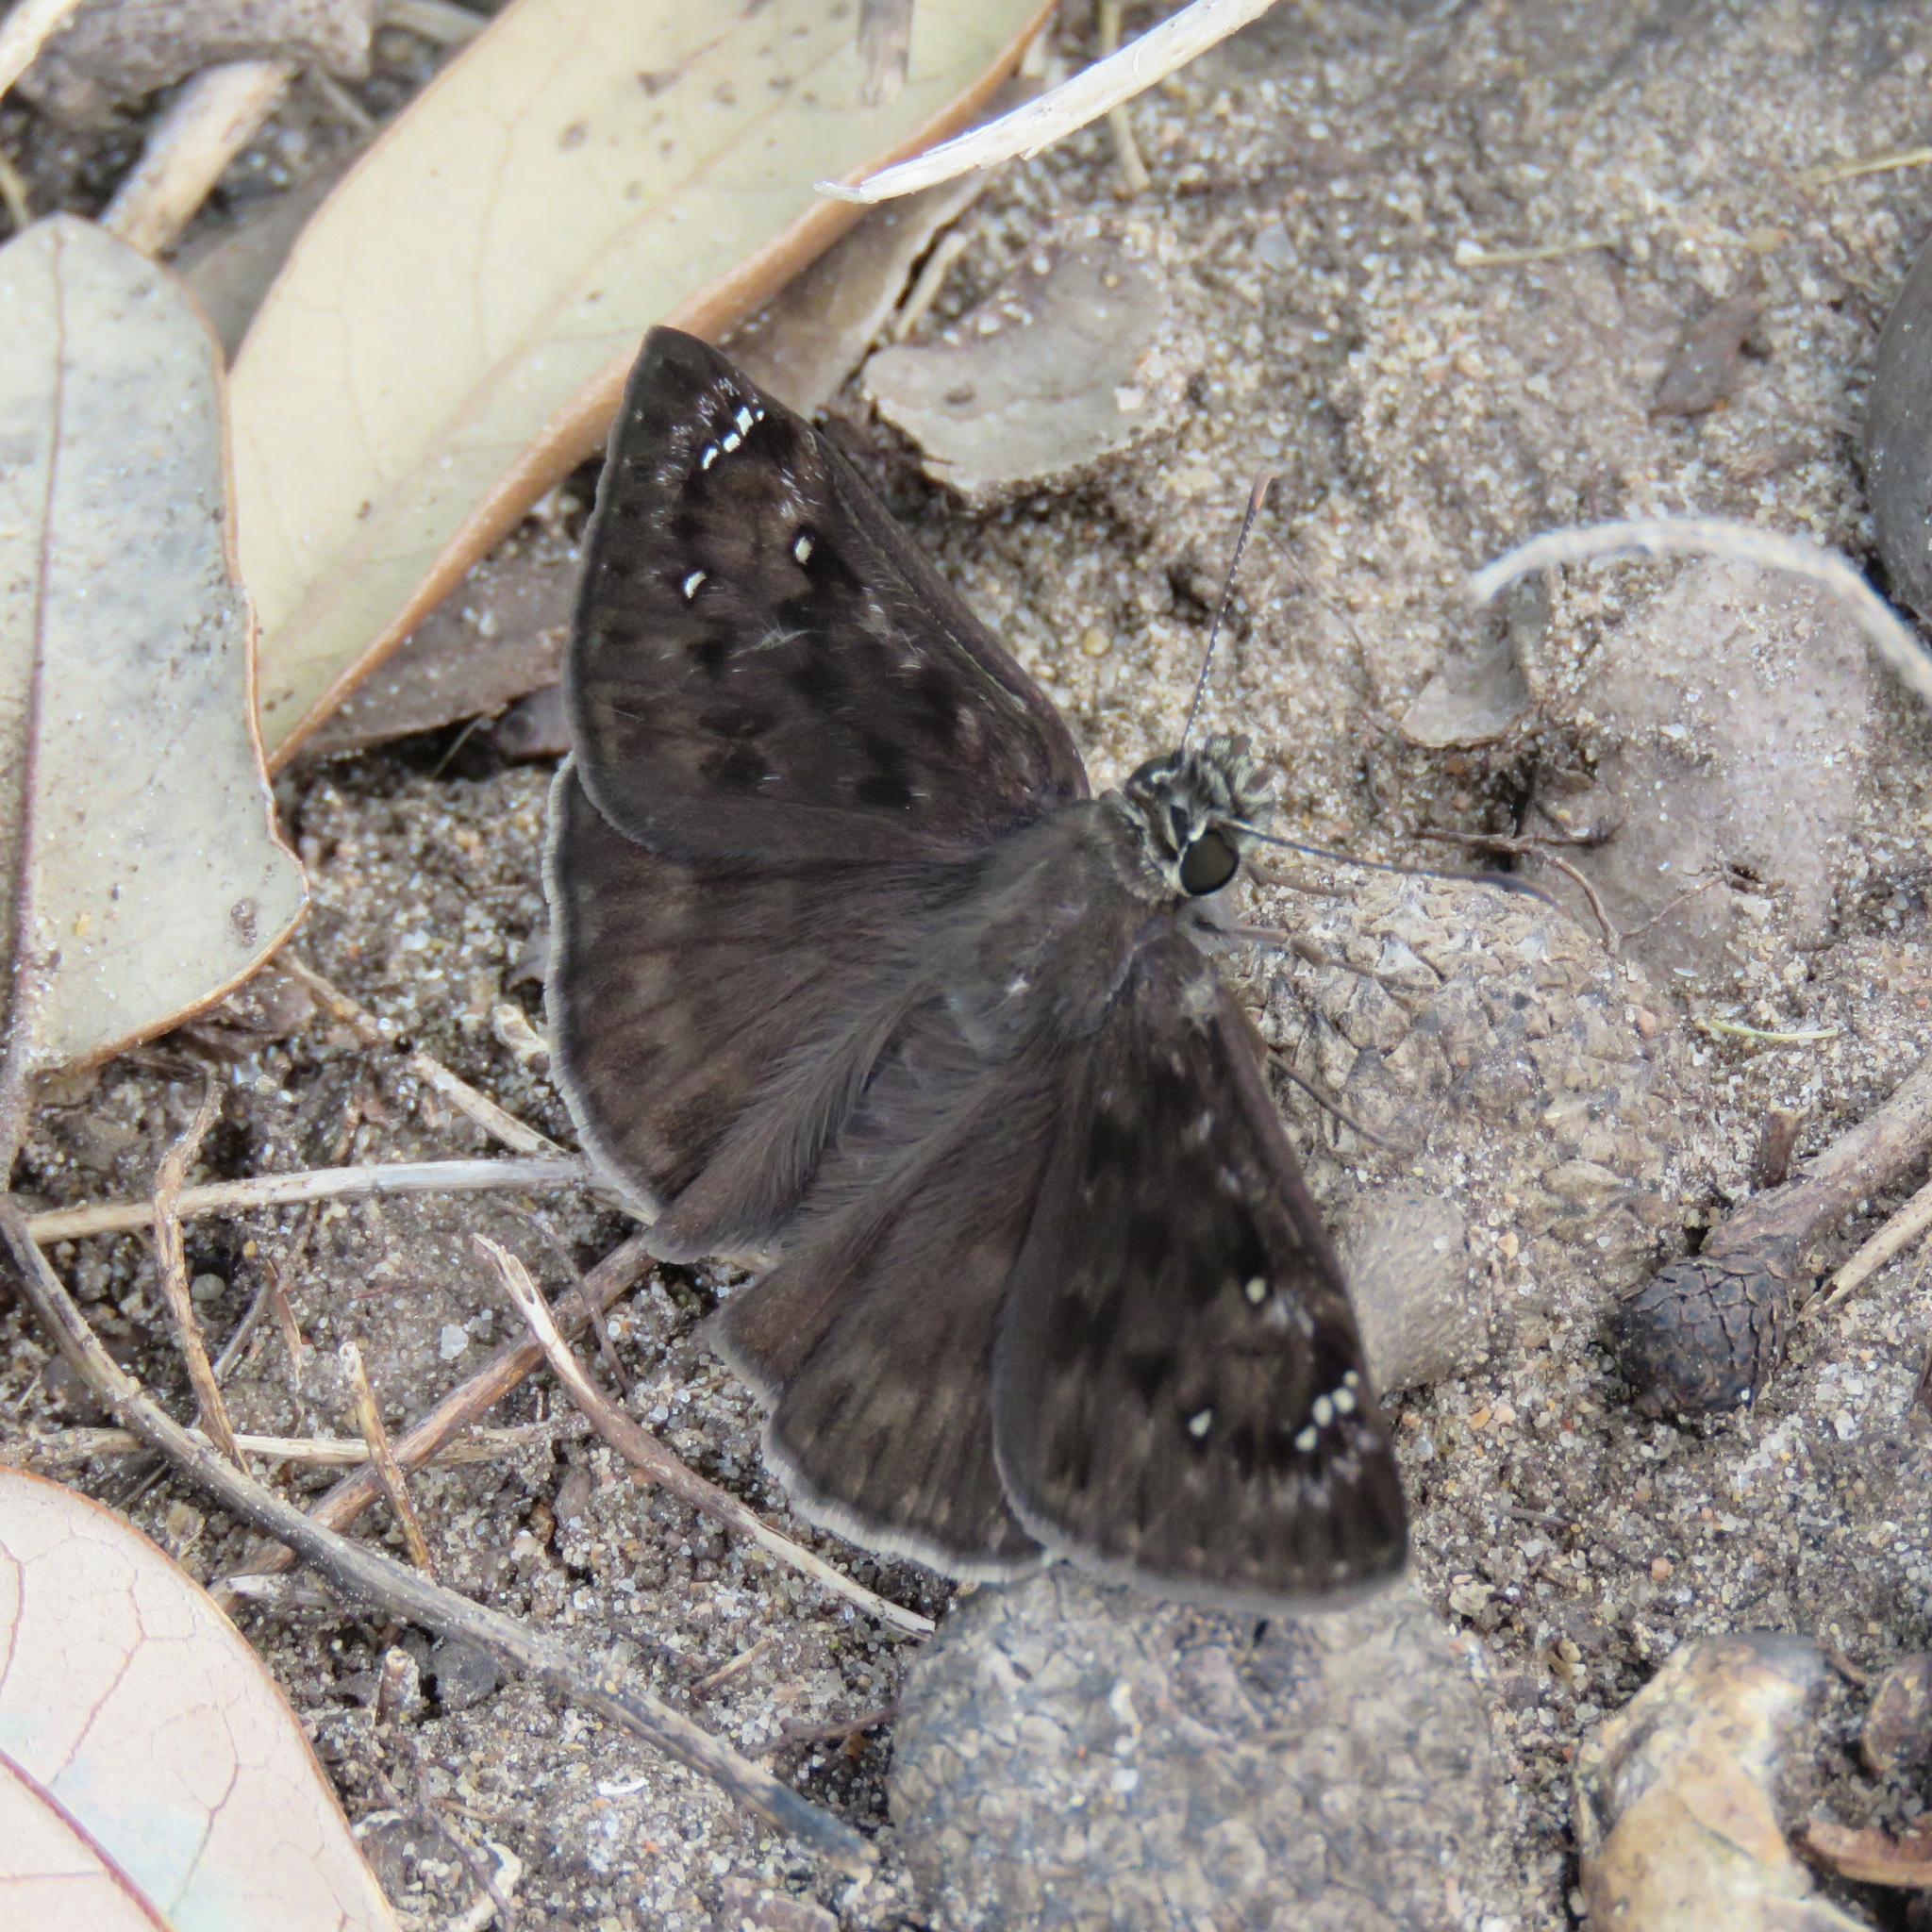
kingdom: Animalia
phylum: Arthropoda
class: Insecta
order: Lepidoptera
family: Hesperiidae
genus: Erynnis
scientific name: Erynnis
